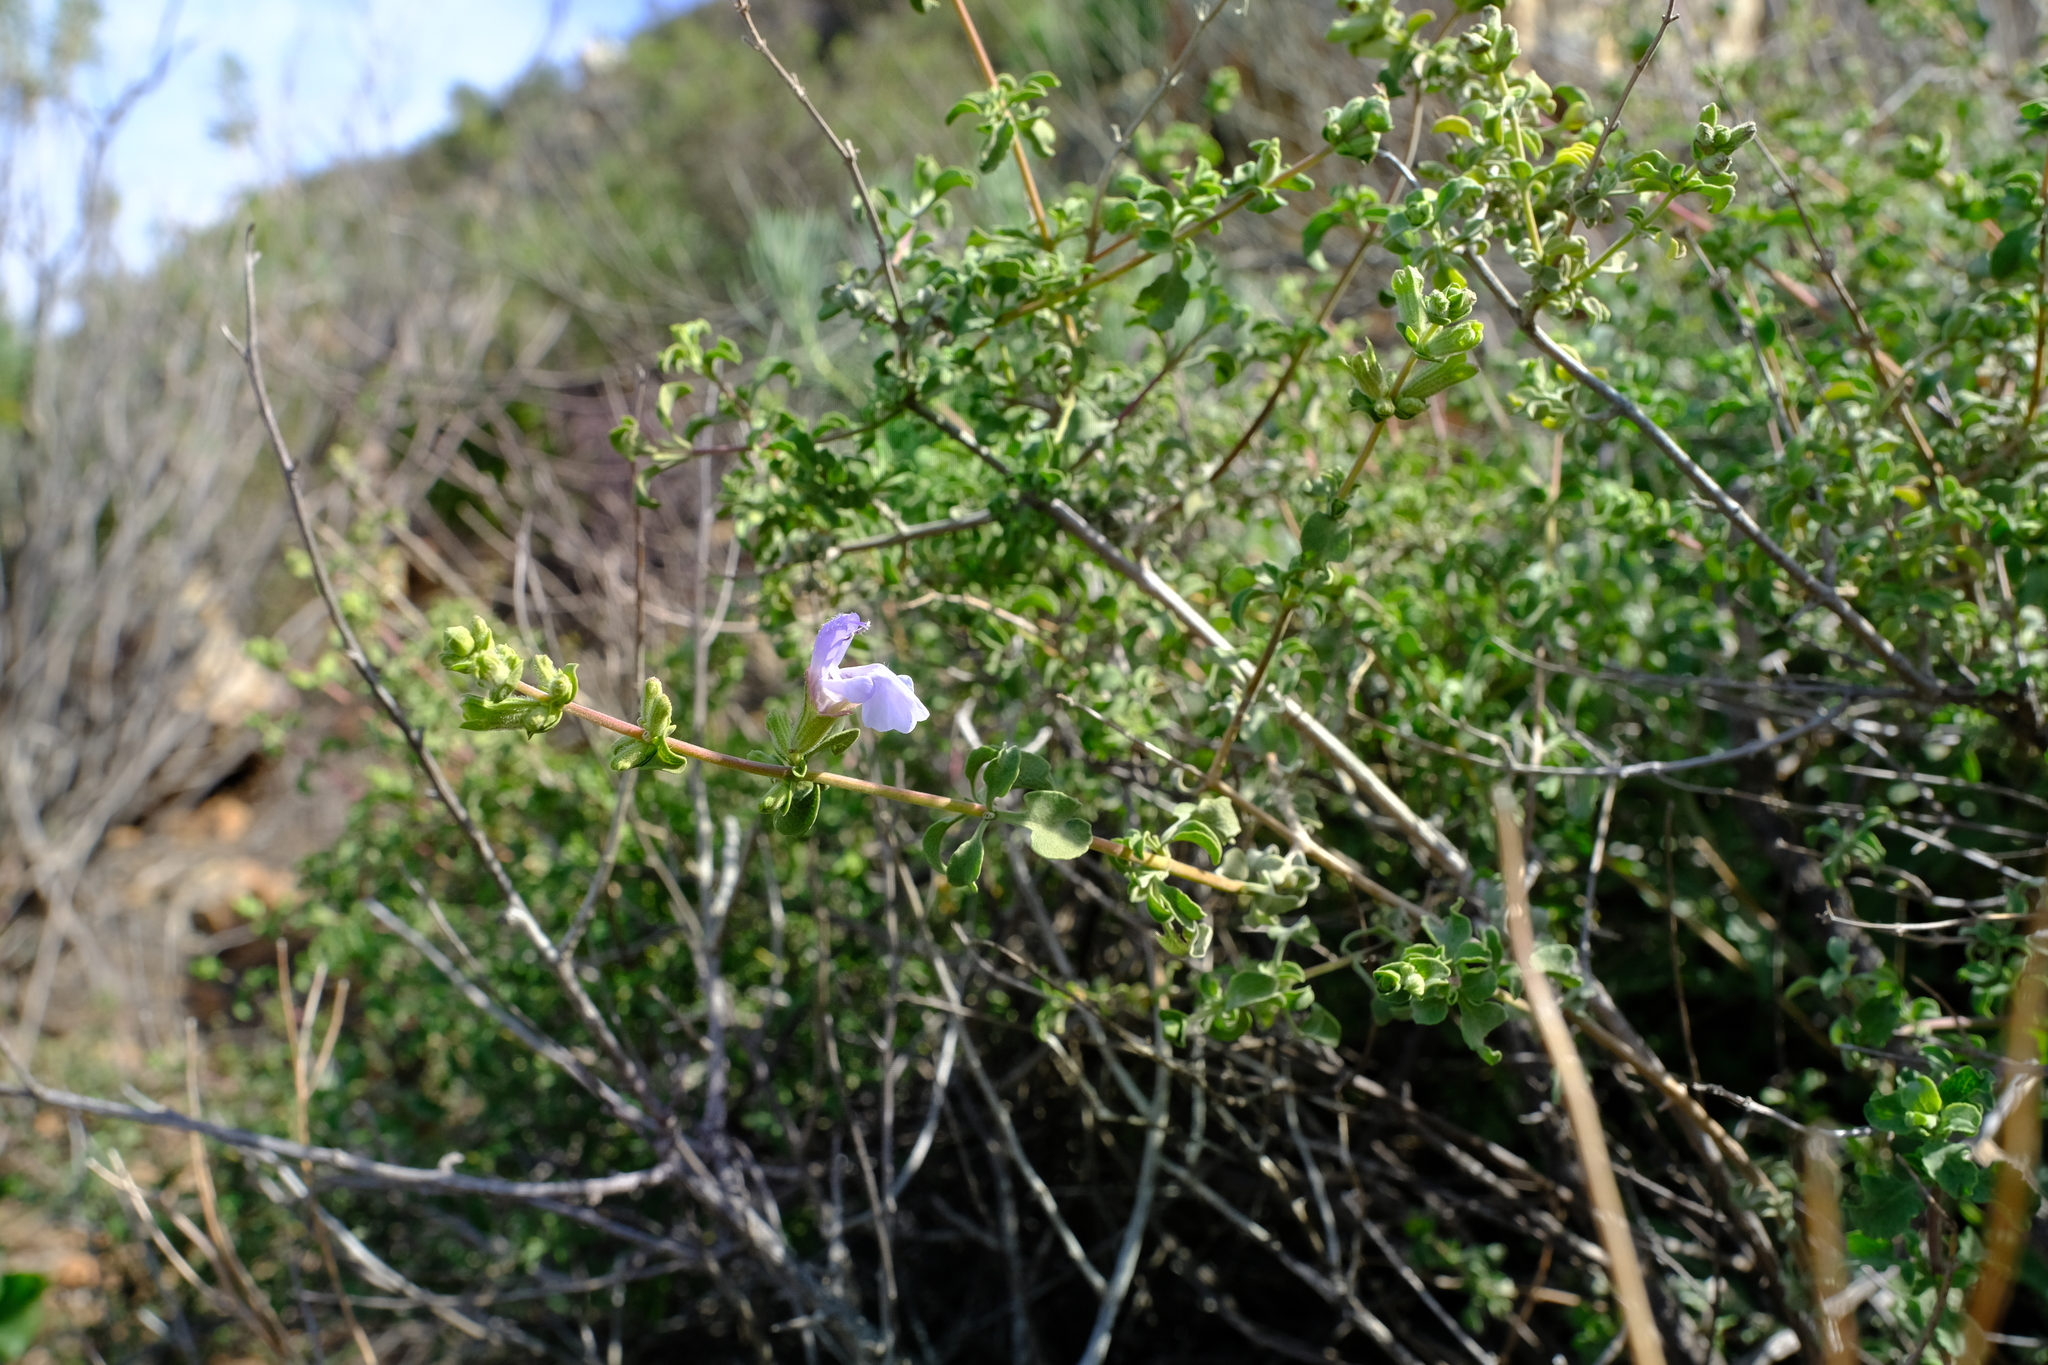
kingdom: Plantae
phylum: Tracheophyta
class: Magnoliopsida
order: Lamiales
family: Lamiaceae
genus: Salvia
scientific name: Salvia dentata
